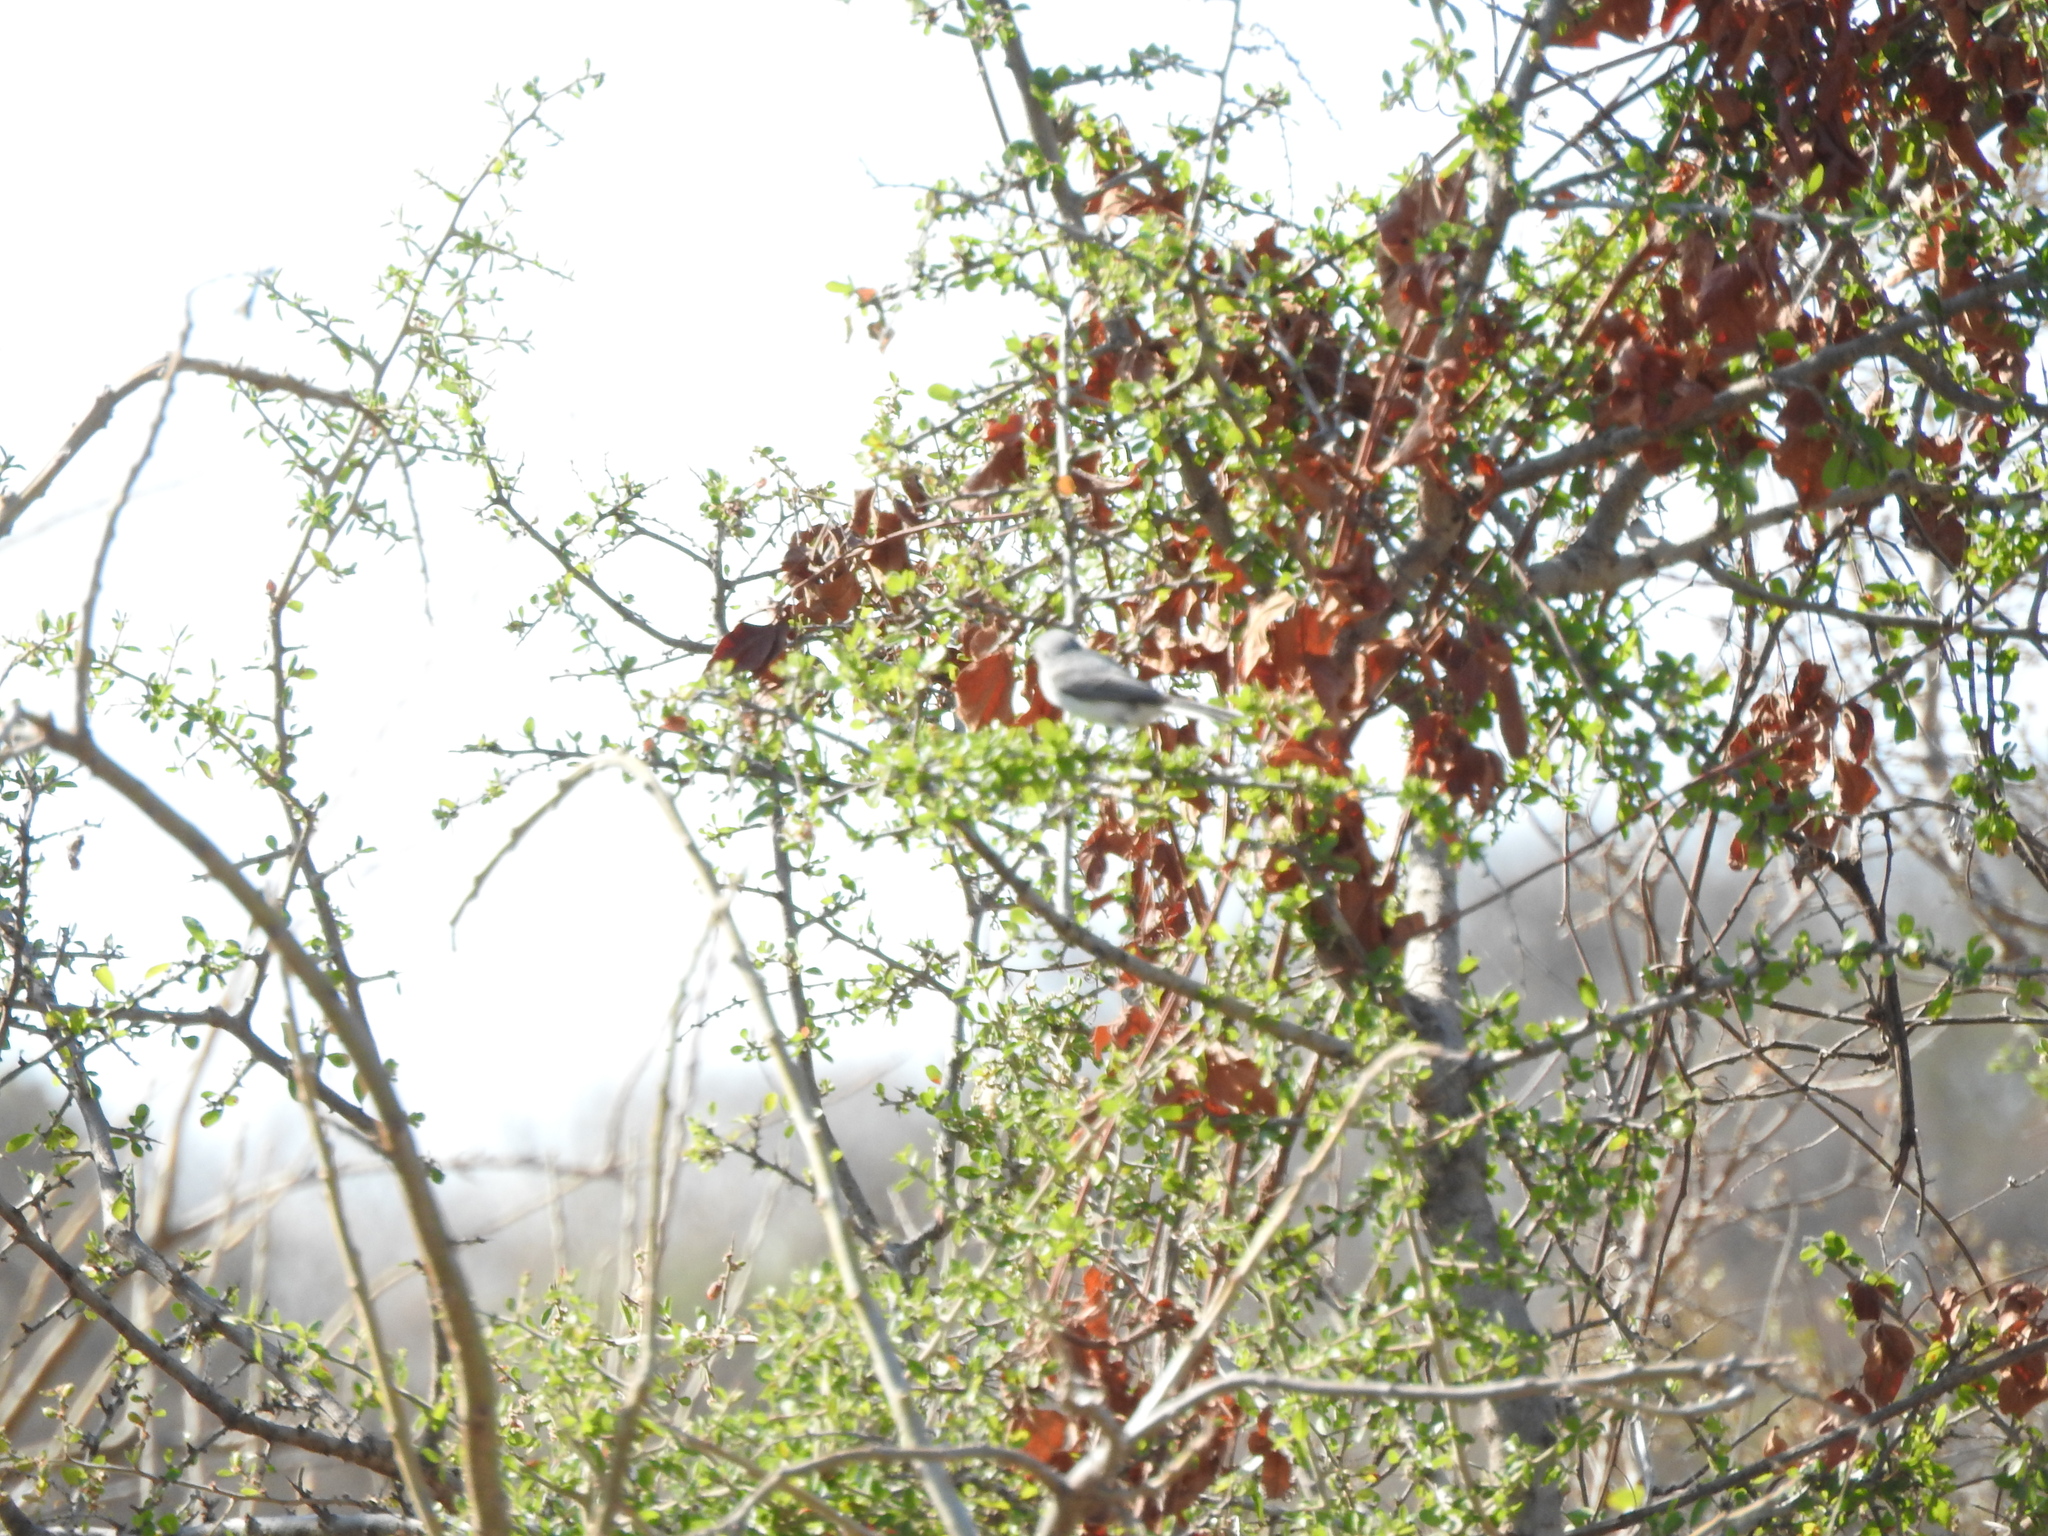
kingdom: Animalia
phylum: Chordata
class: Aves
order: Passeriformes
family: Polioptilidae
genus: Polioptila
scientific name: Polioptila caerulea
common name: Blue-gray gnatcatcher
